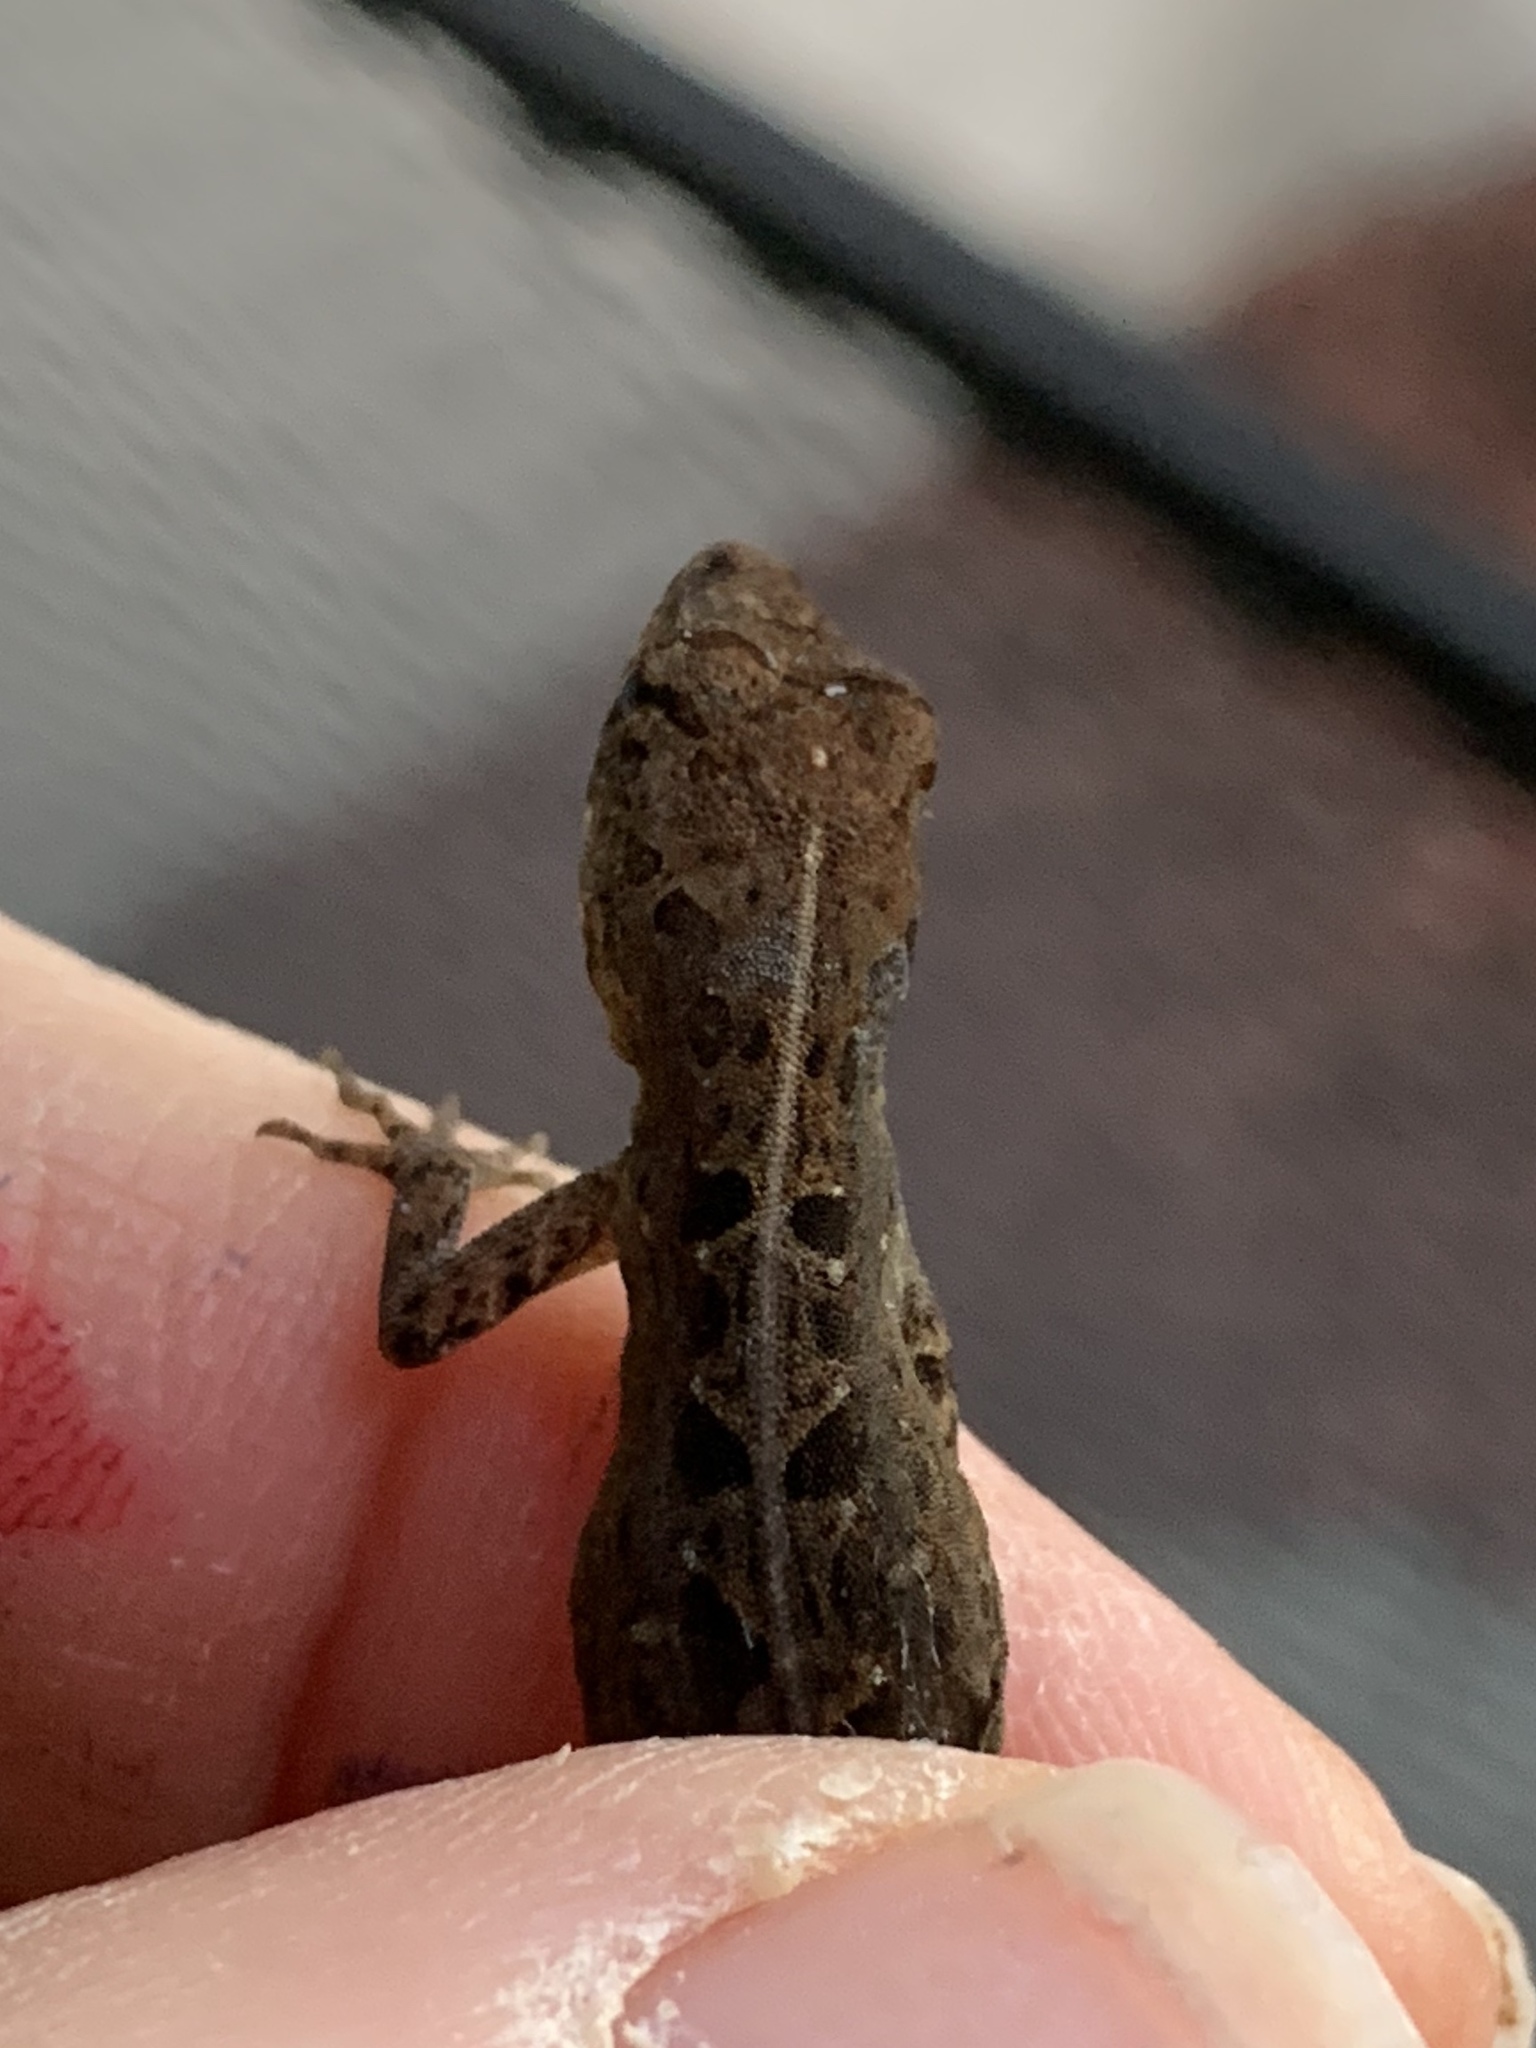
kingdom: Animalia
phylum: Chordata
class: Squamata
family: Dactyloidae
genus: Anolis
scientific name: Anolis sagrei
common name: Brown anole
